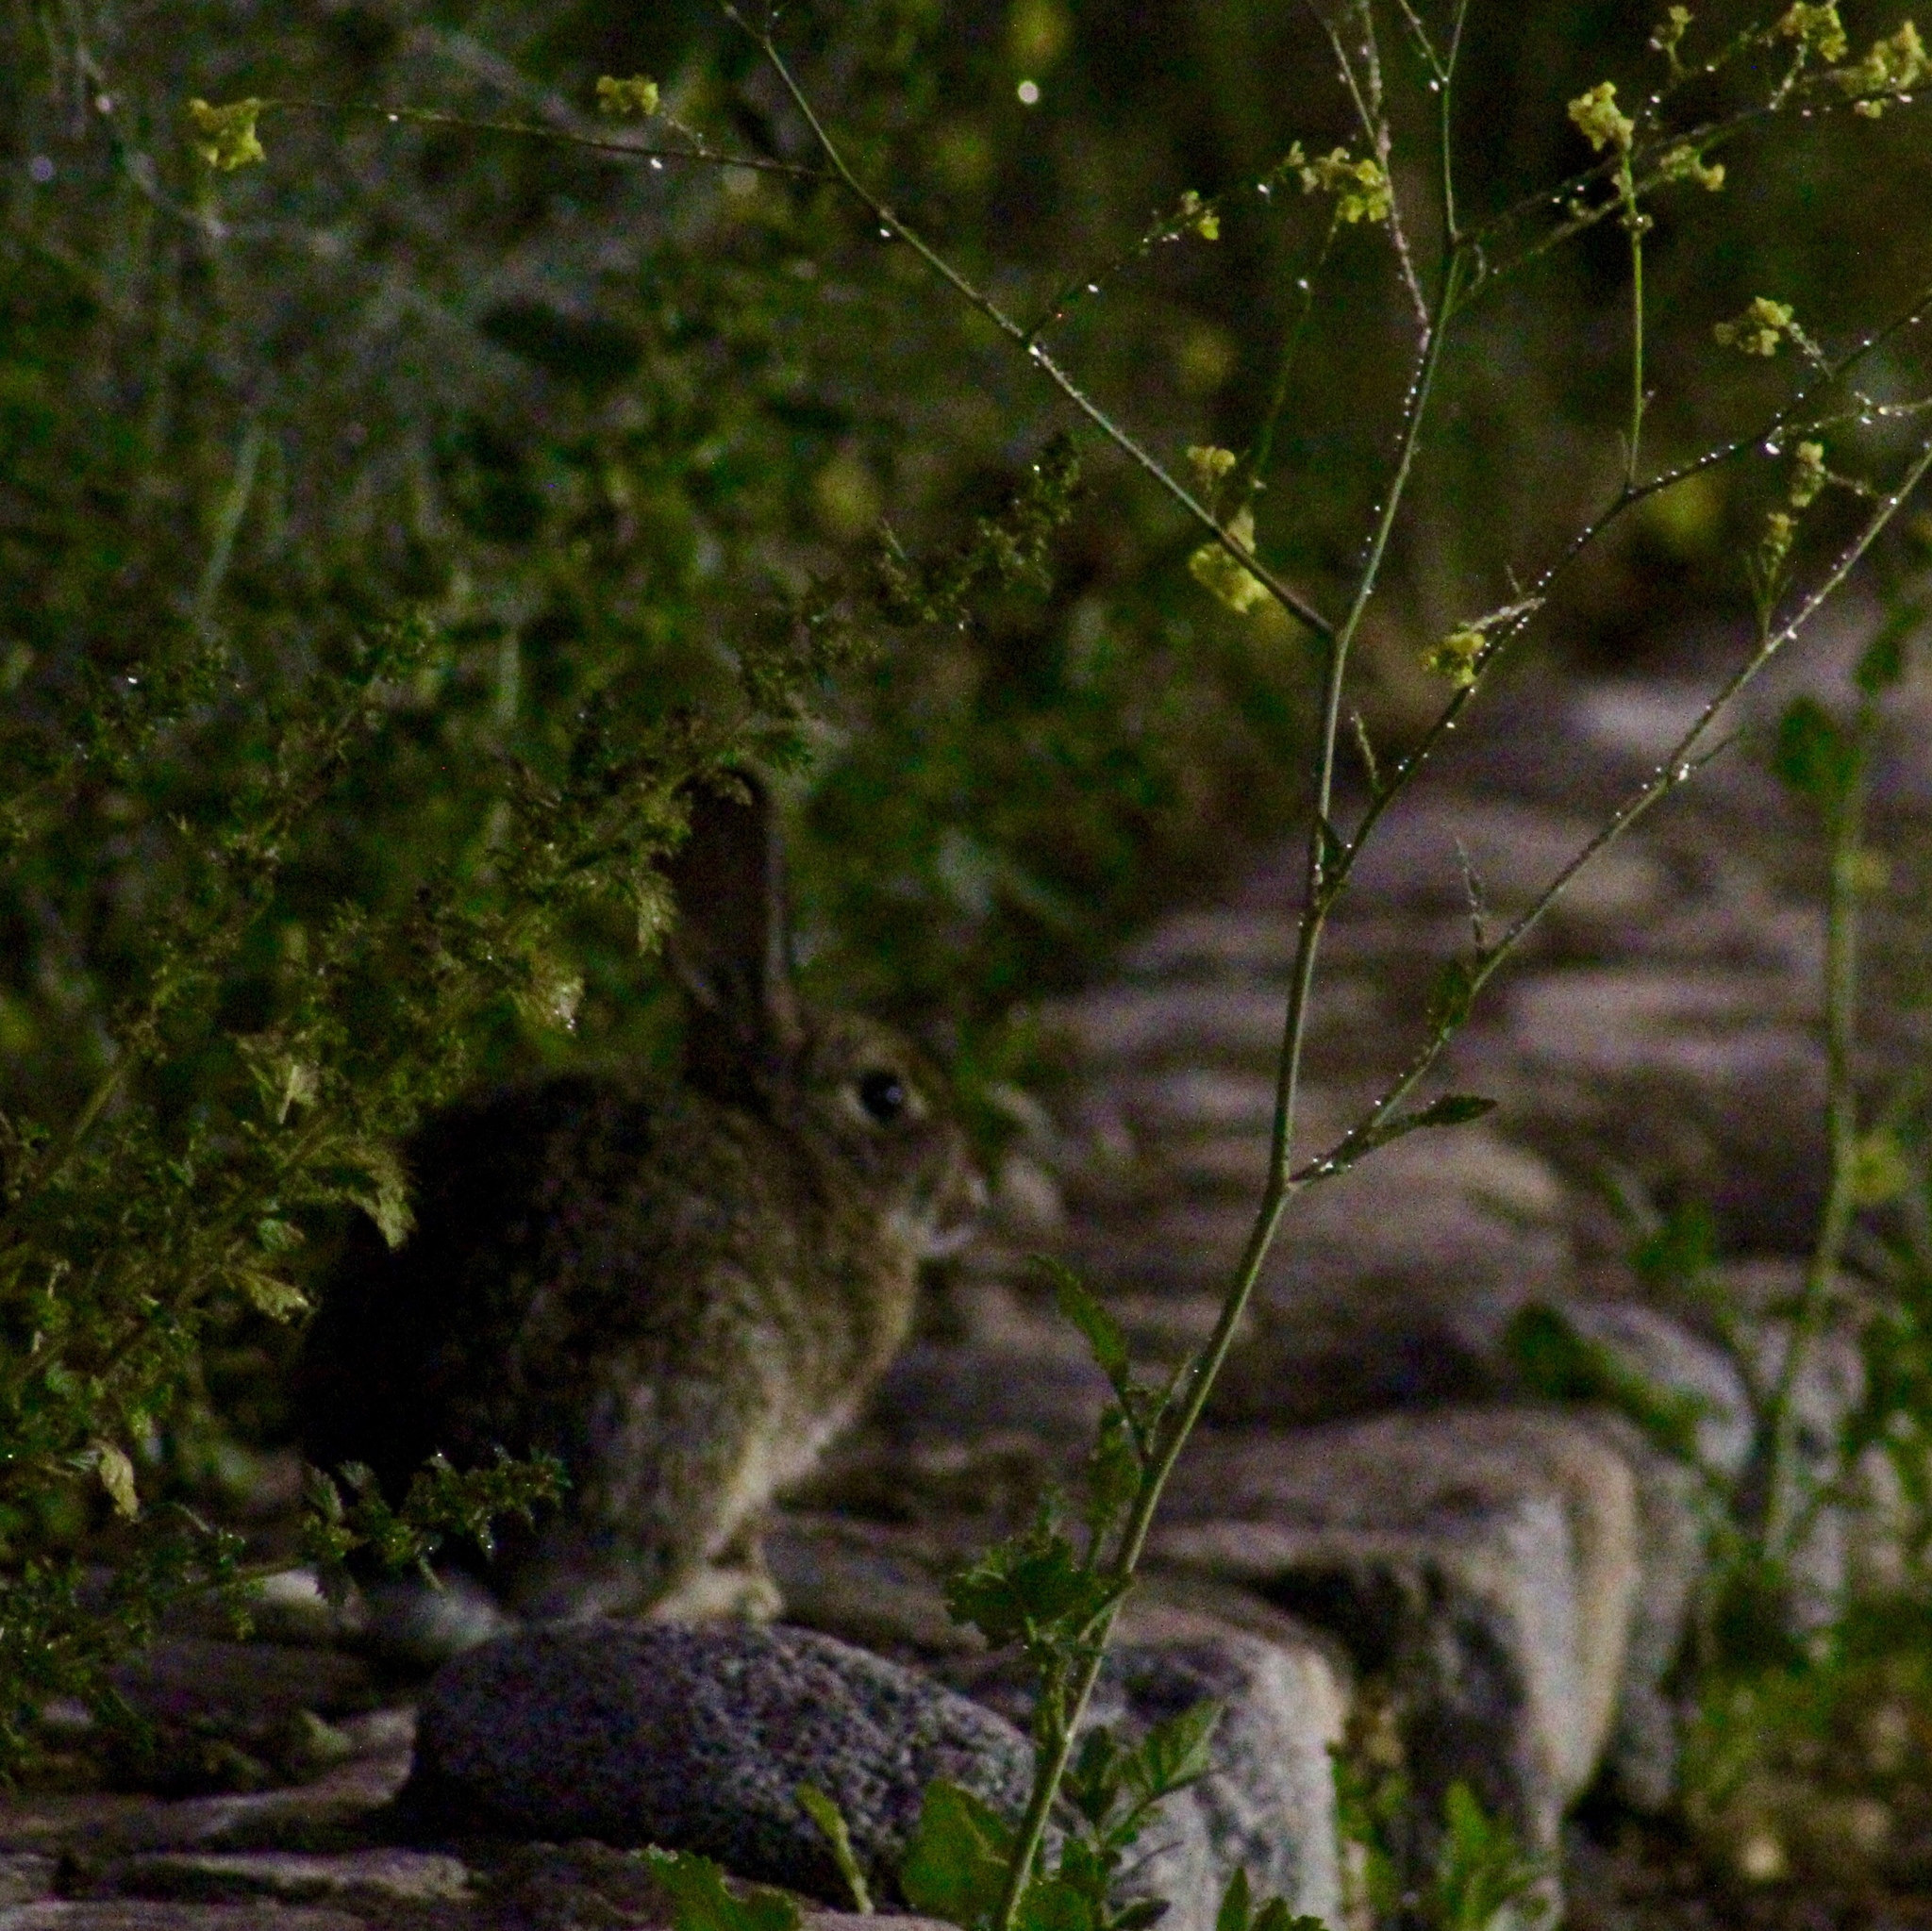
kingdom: Animalia
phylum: Chordata
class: Mammalia
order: Lagomorpha
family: Leporidae
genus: Sylvilagus
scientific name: Sylvilagus audubonii
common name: Desert cottontail
